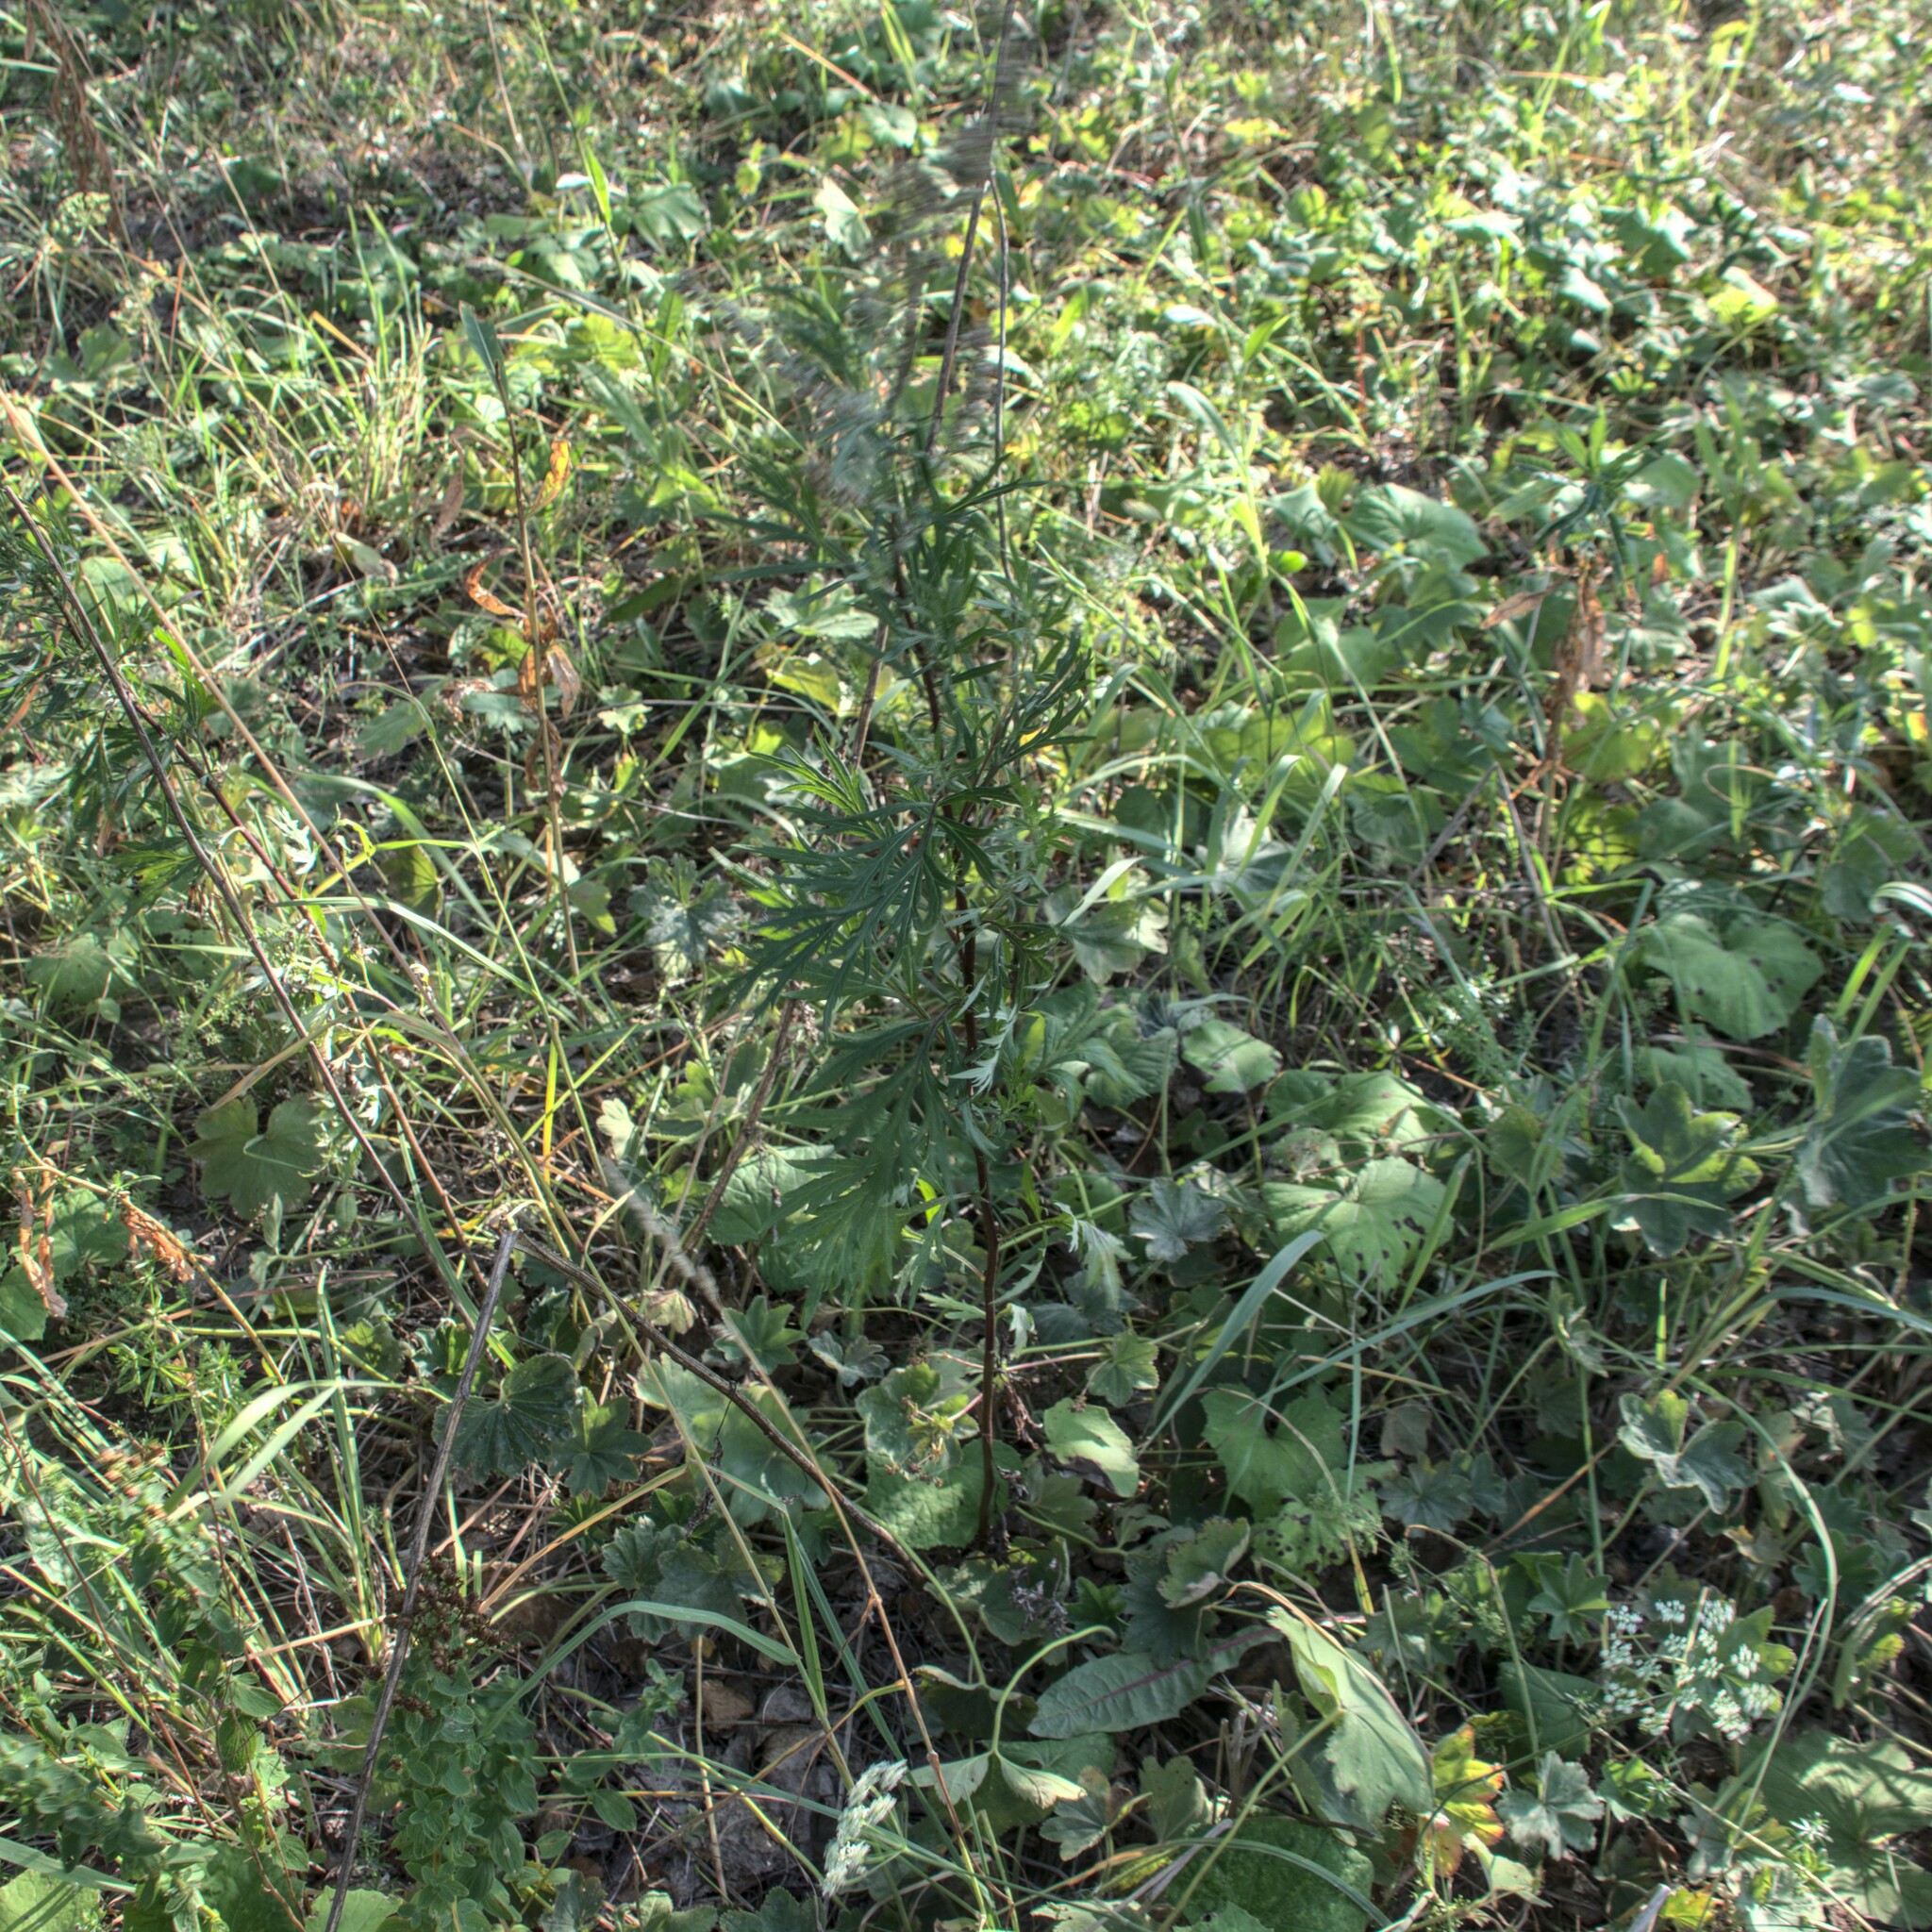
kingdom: Plantae
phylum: Tracheophyta
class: Magnoliopsida
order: Asterales
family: Asteraceae
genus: Artemisia
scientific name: Artemisia vulgaris
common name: Mugwort
